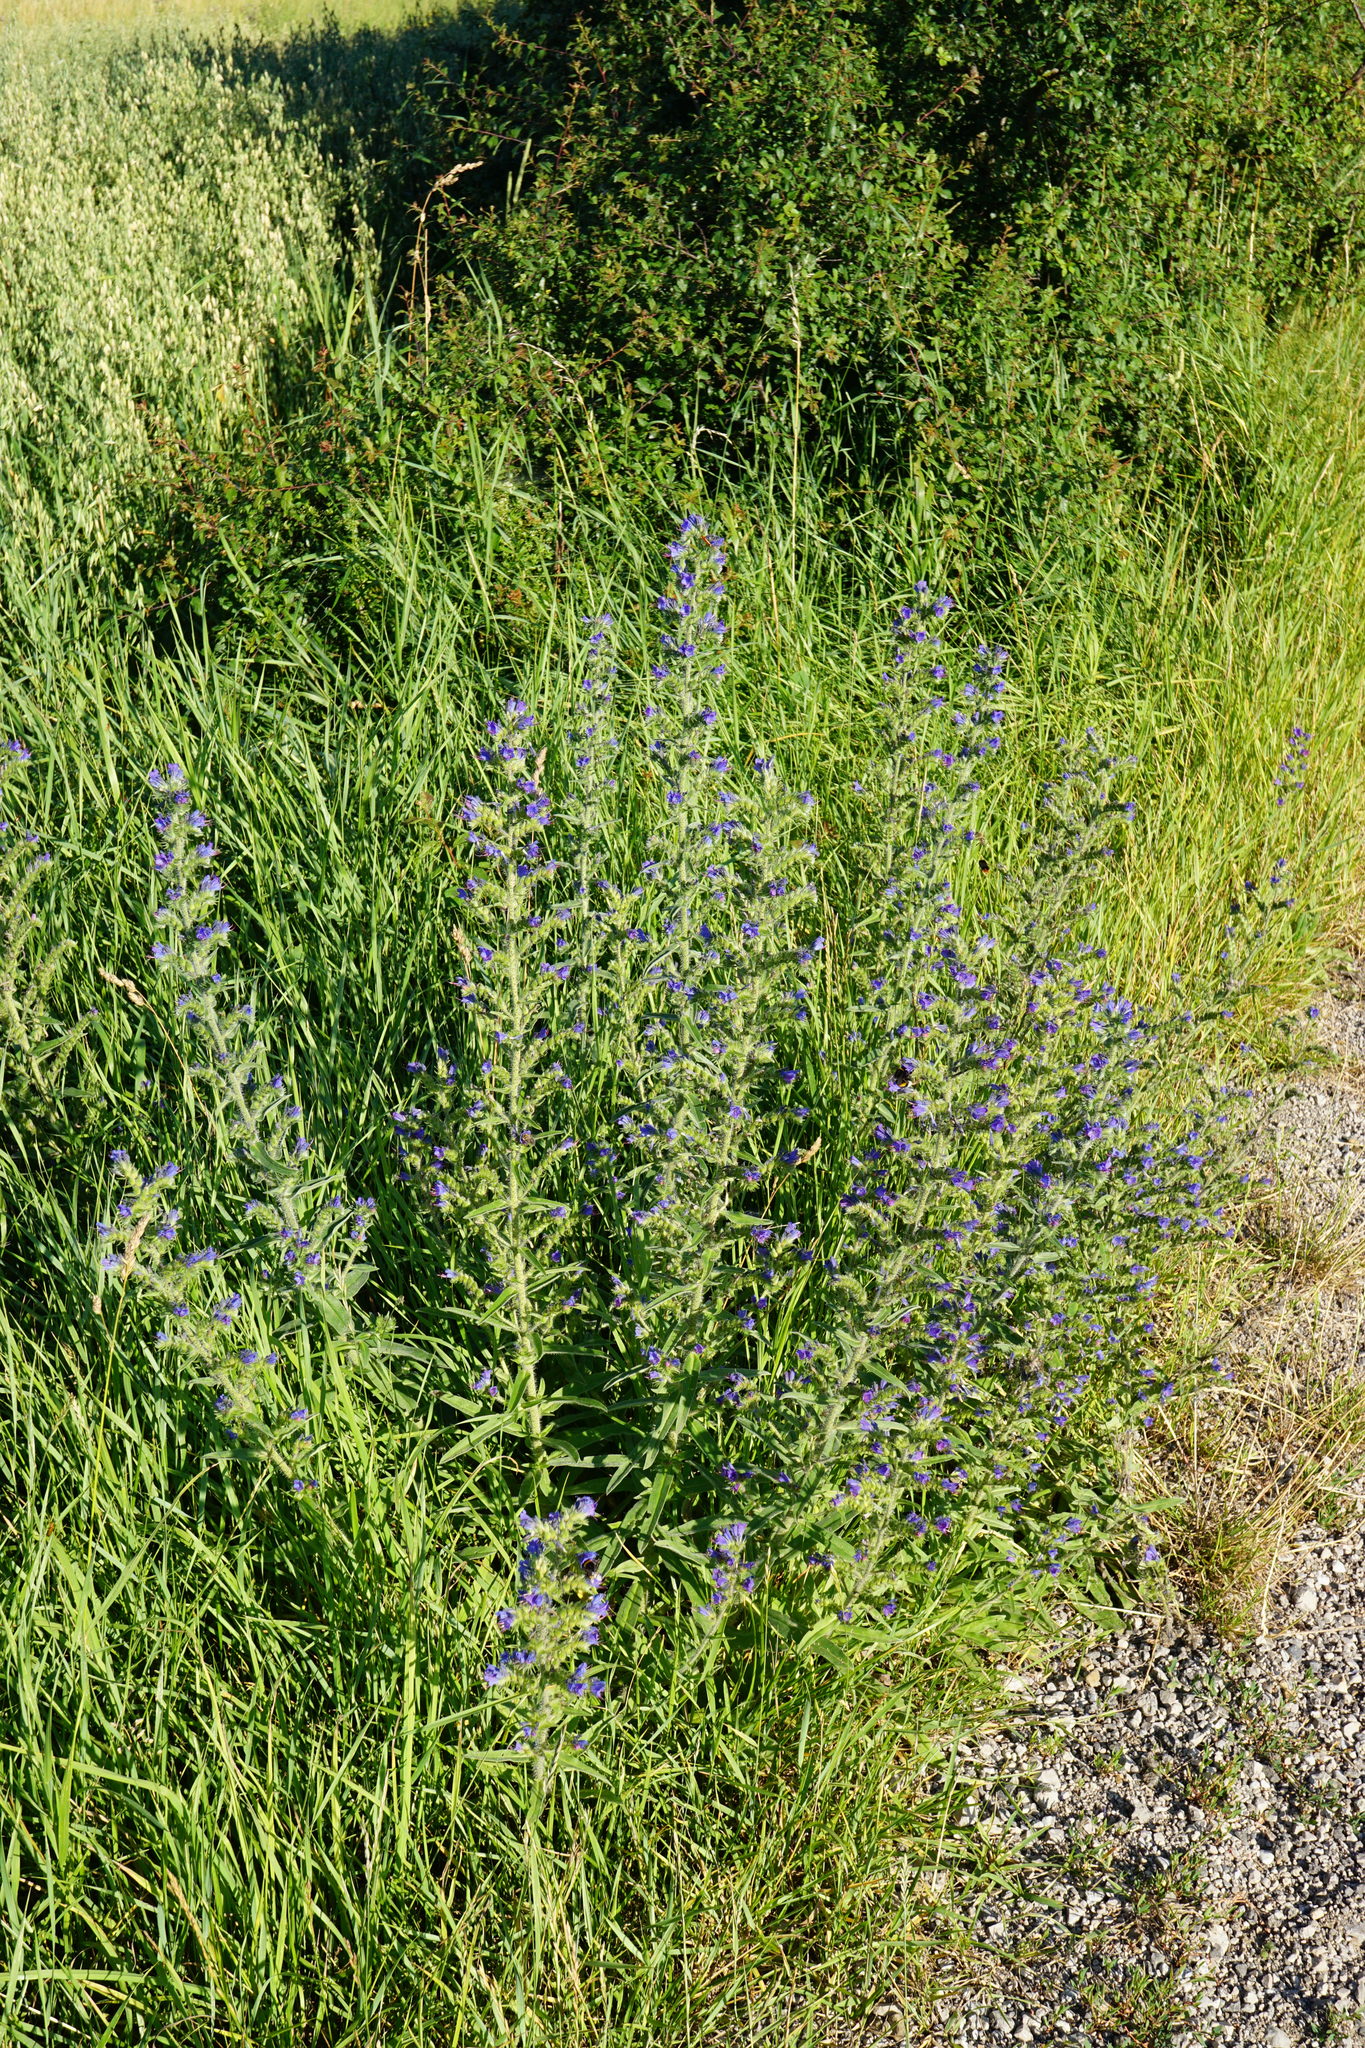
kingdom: Plantae
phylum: Tracheophyta
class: Magnoliopsida
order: Boraginales
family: Boraginaceae
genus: Echium
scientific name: Echium vulgare
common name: Common viper's bugloss
